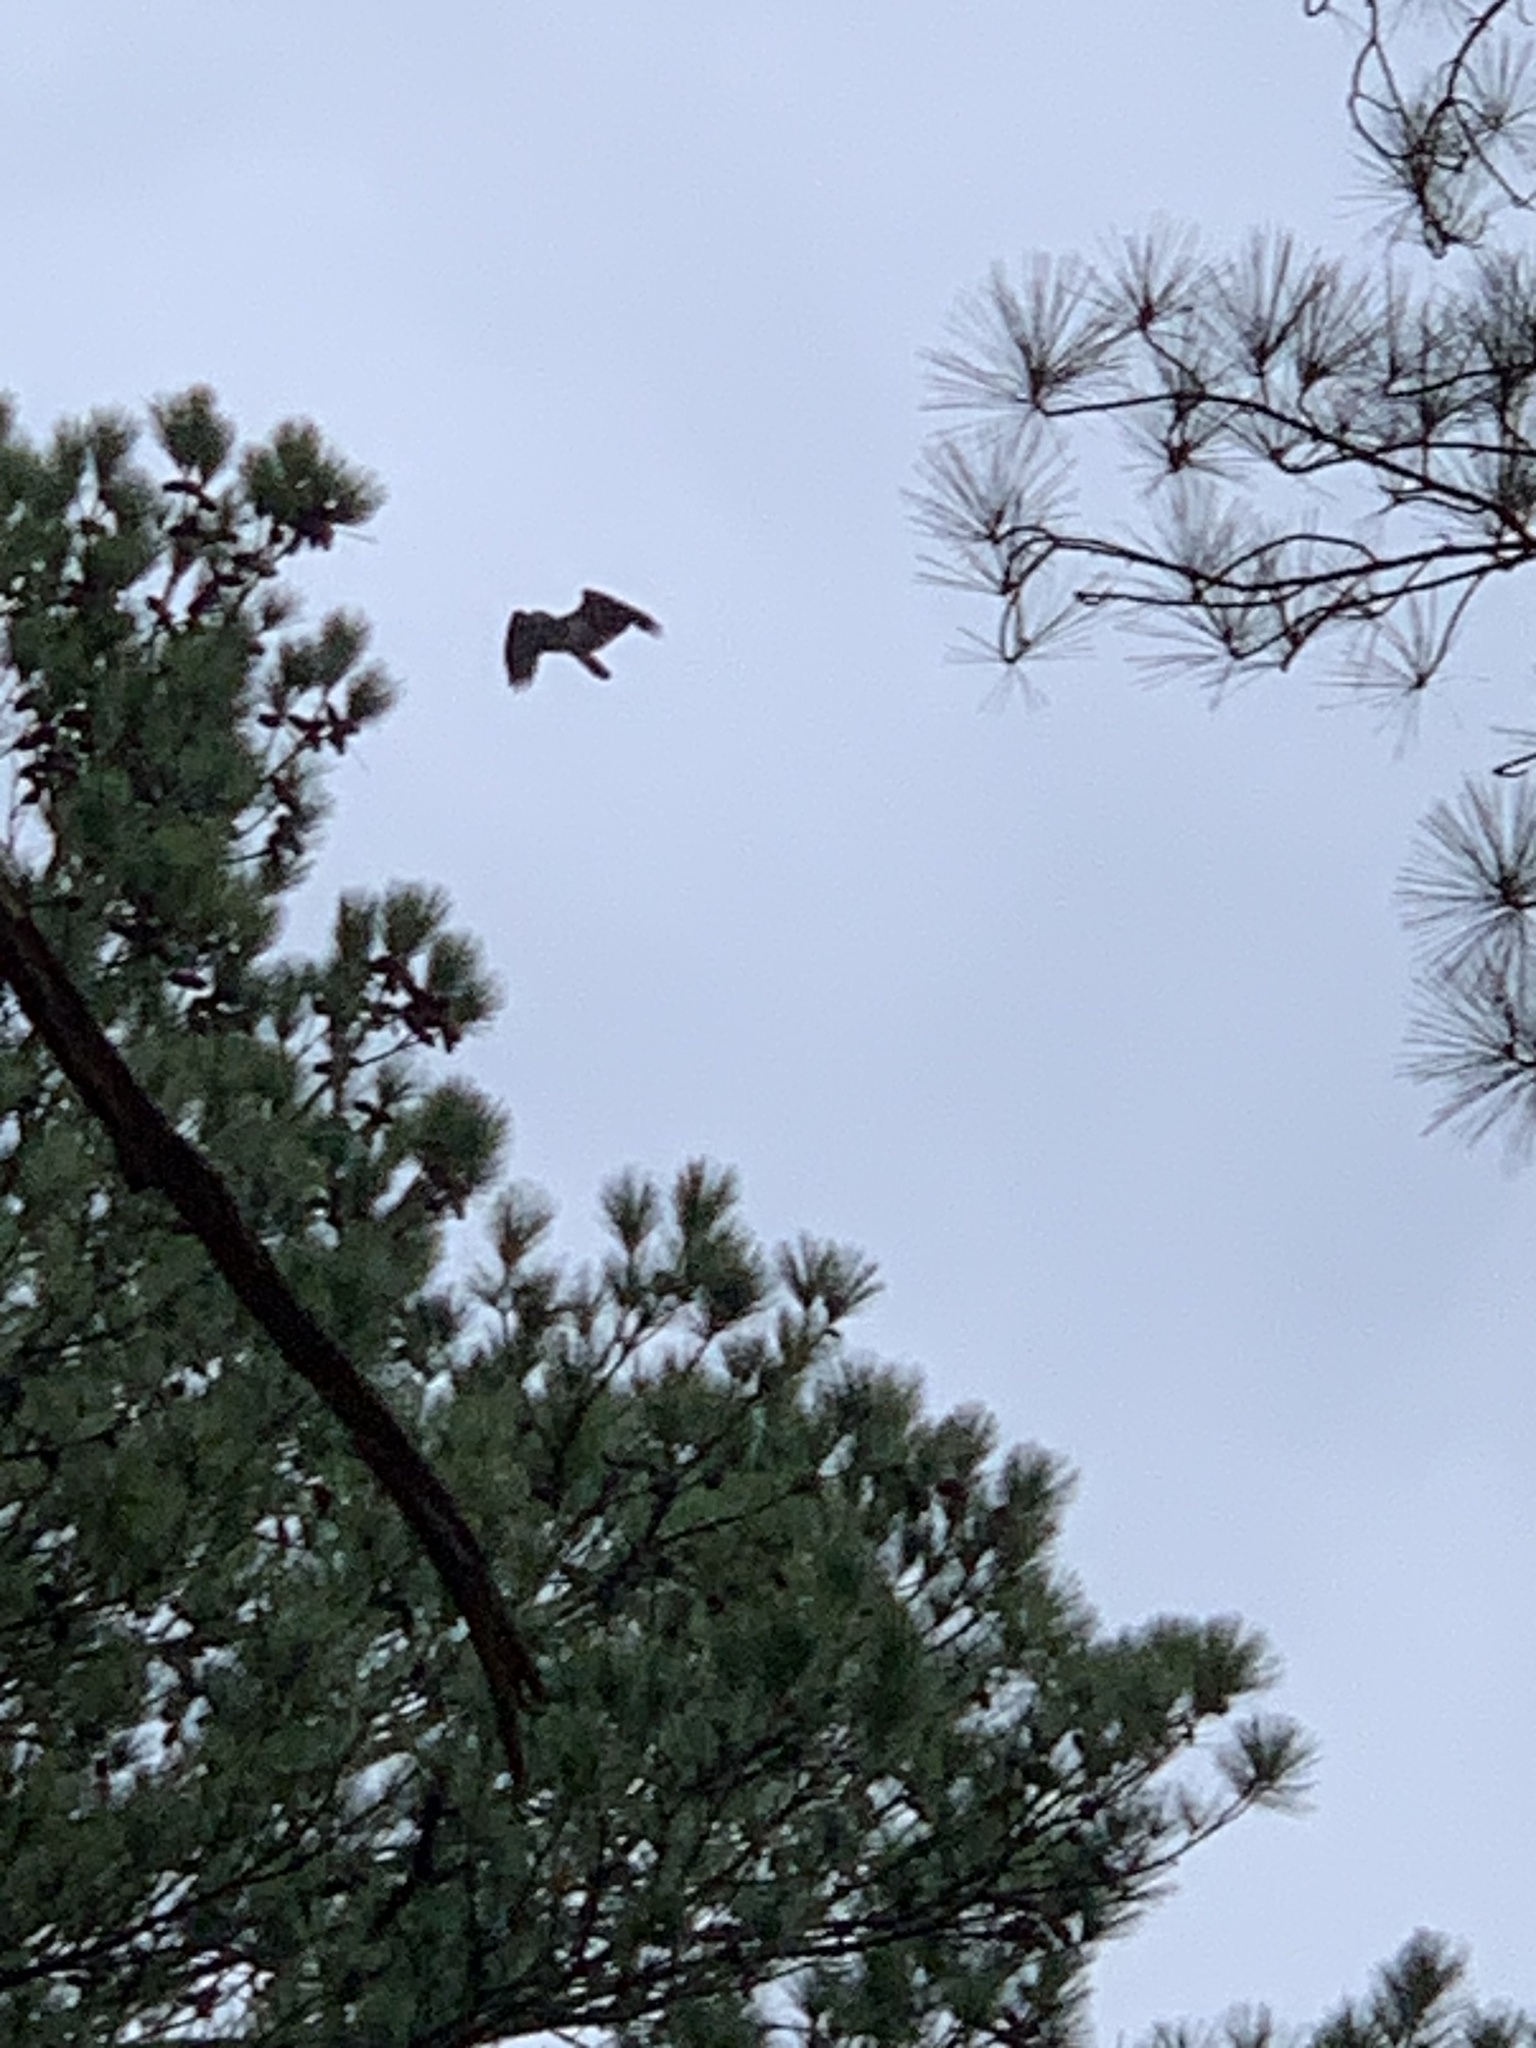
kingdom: Animalia
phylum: Chordata
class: Aves
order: Accipitriformes
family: Accipitridae
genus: Haliaeetus
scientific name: Haliaeetus leucocephalus
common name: Bald eagle
